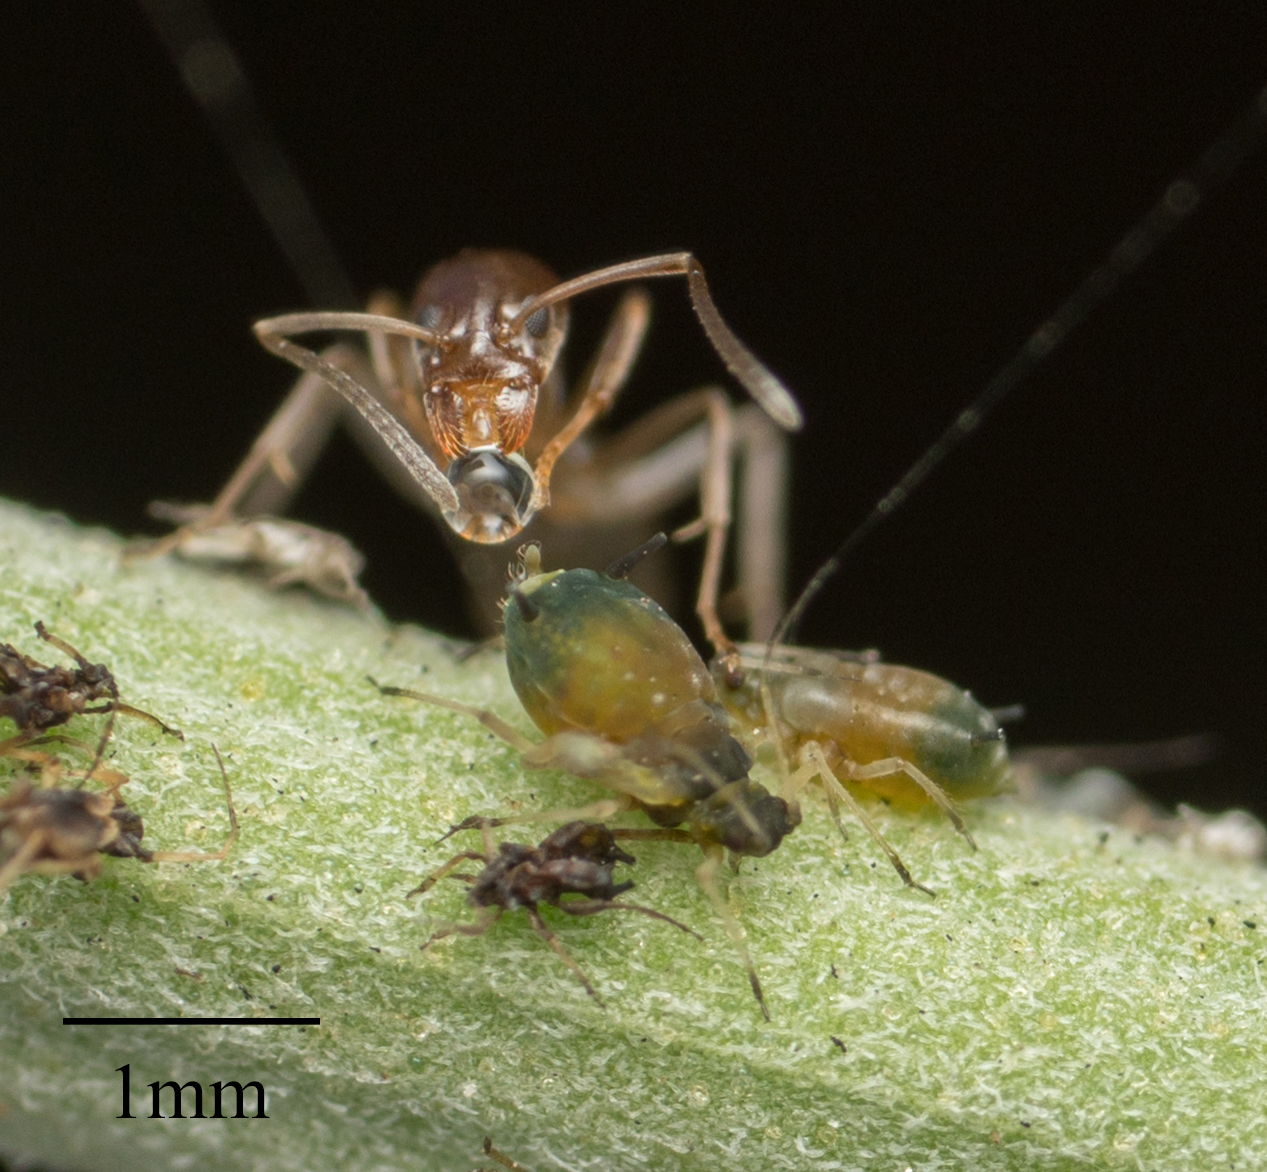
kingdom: Animalia
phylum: Arthropoda
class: Insecta
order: Hemiptera
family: Aphididae
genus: Aphis
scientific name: Aphis gossypii
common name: Melon aphid
